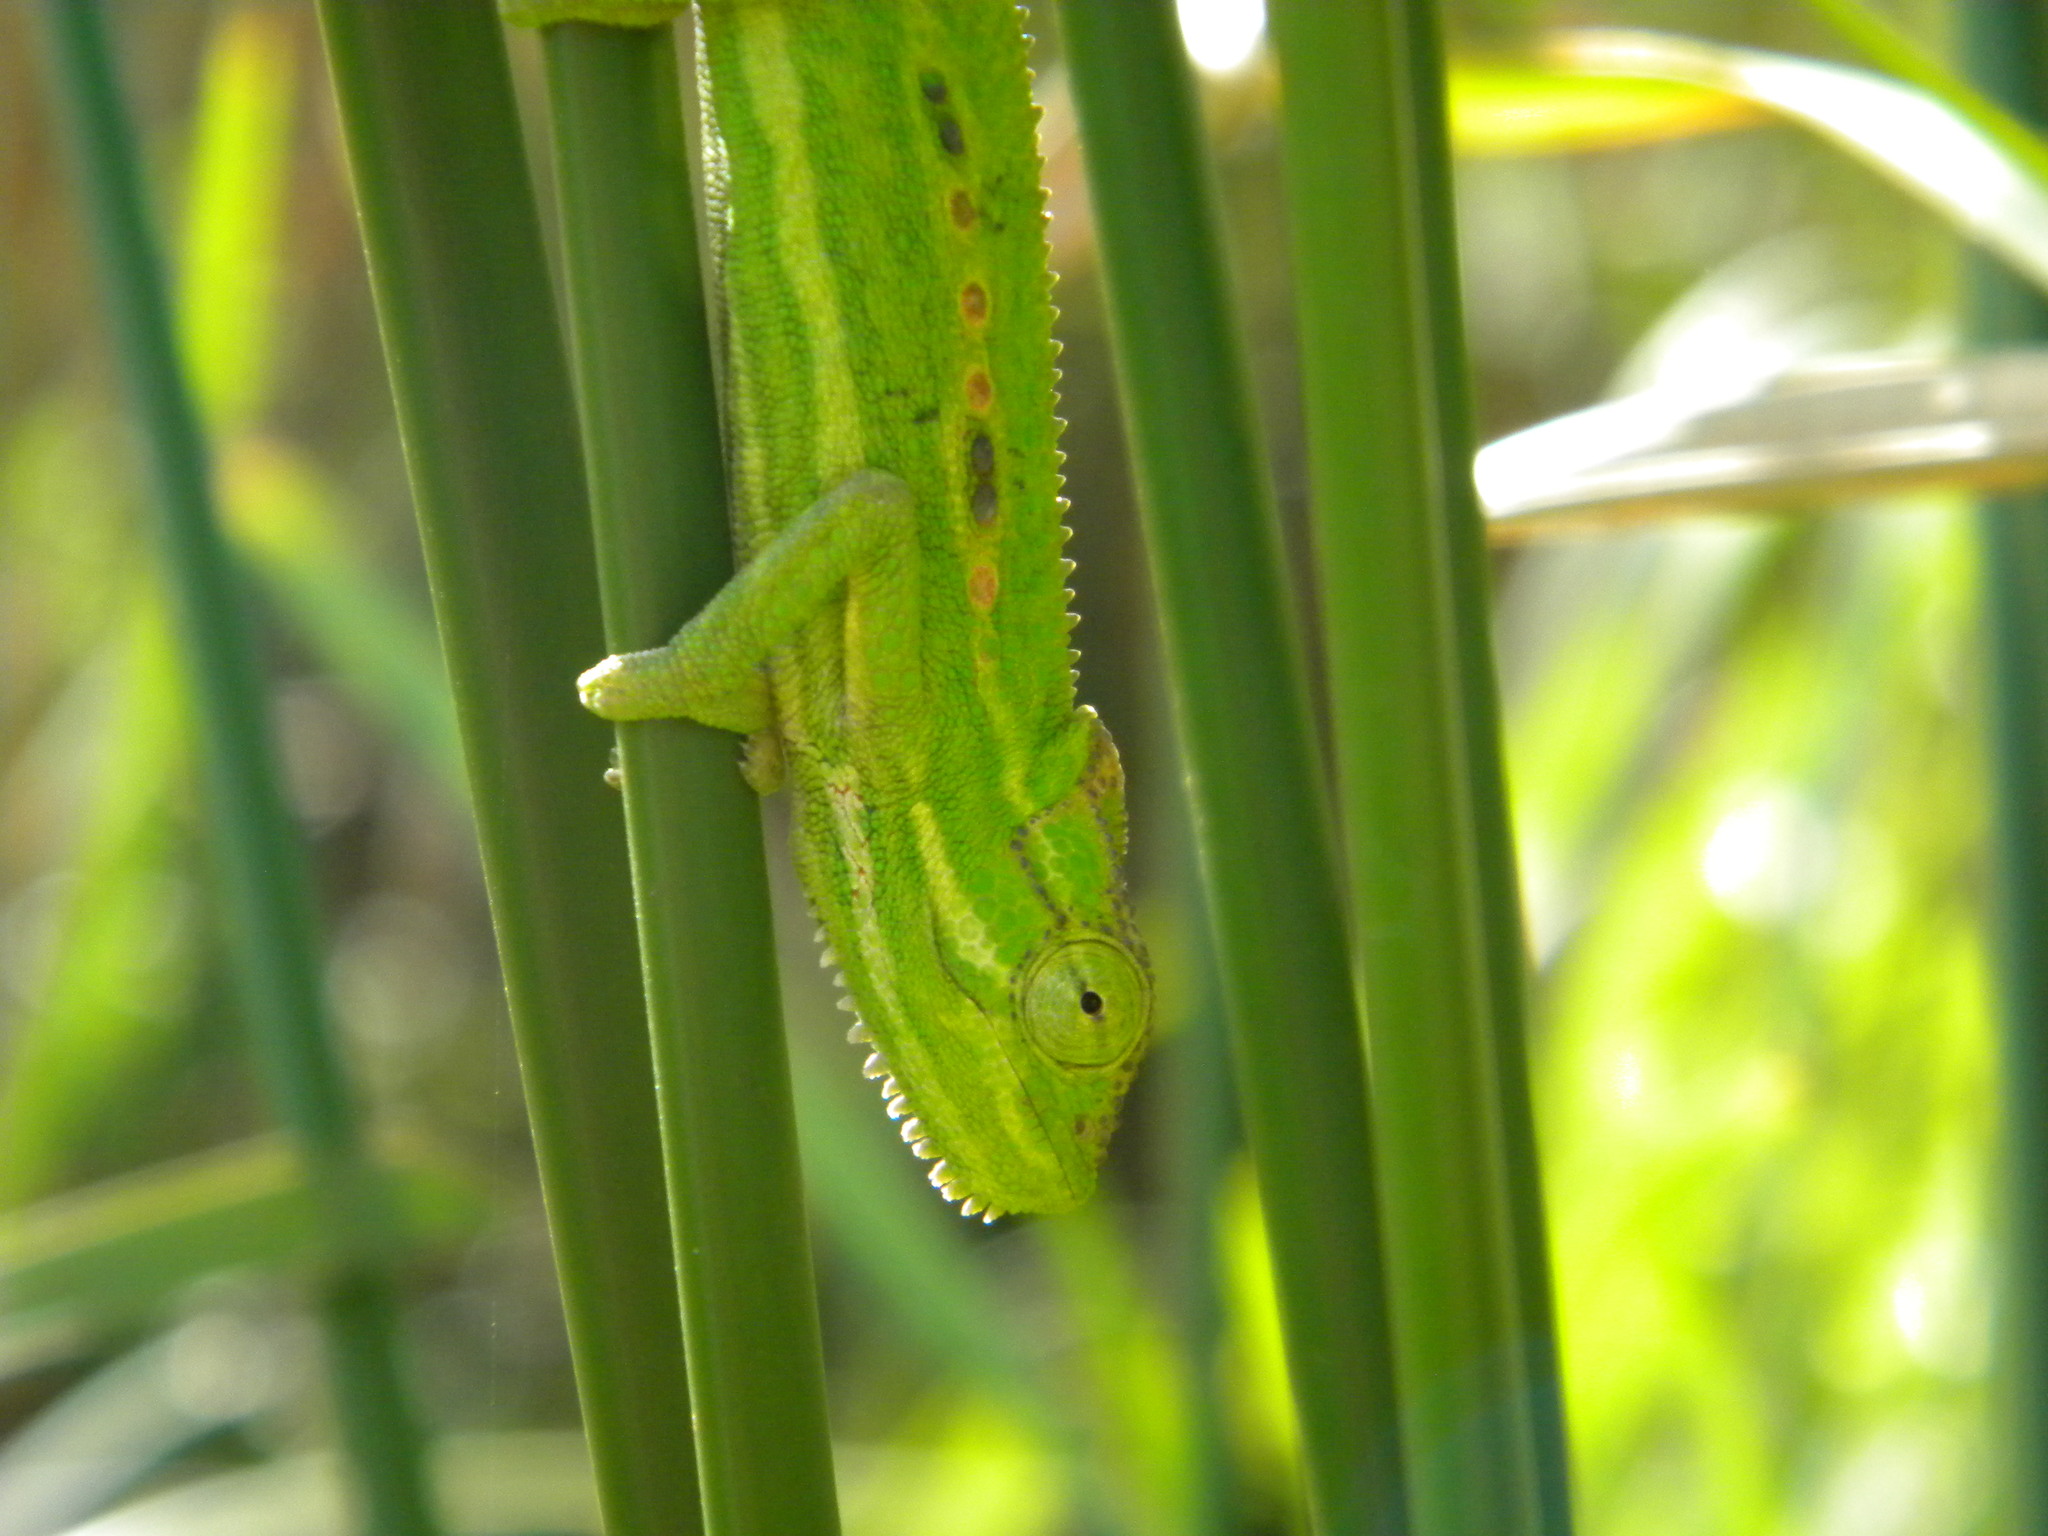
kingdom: Animalia
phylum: Chordata
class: Squamata
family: Chamaeleonidae
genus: Bradypodion
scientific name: Bradypodion pumilum
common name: Cape dwarf chameleon
